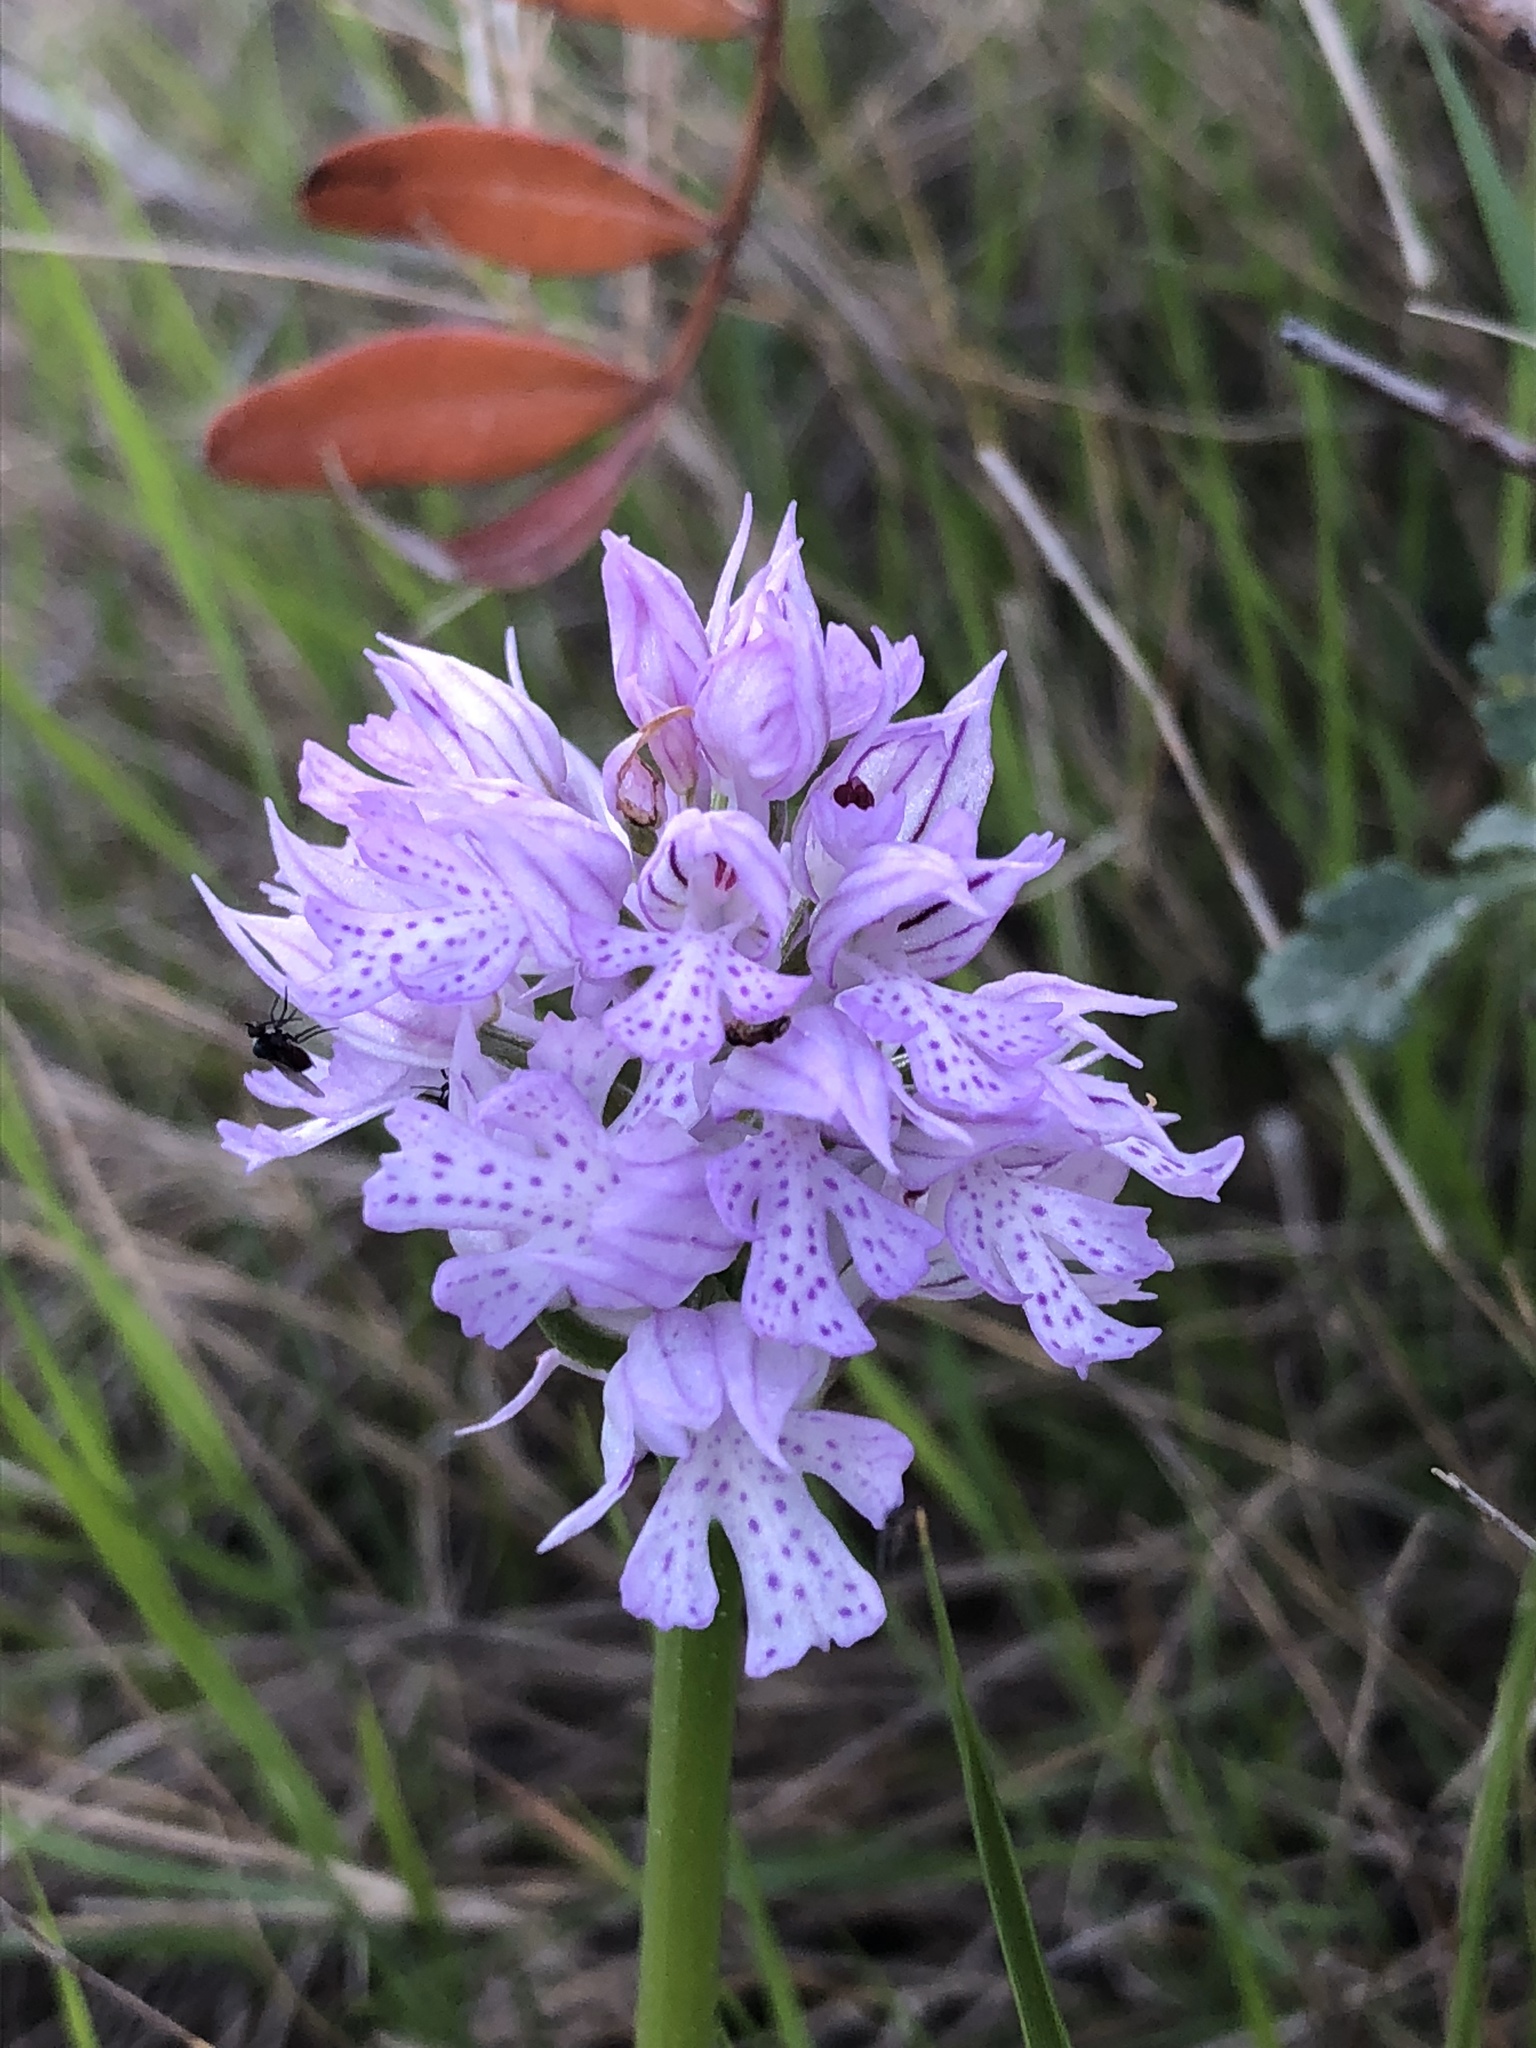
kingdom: Plantae
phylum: Tracheophyta
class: Liliopsida
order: Asparagales
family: Orchidaceae
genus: Neotinea
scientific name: Neotinea tridentata
